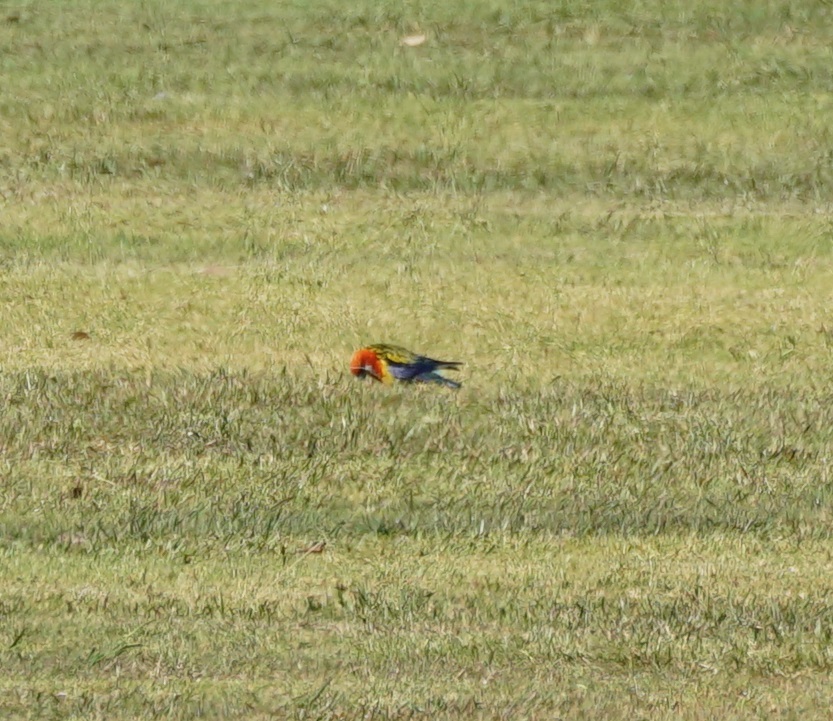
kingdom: Animalia
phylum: Chordata
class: Aves
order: Psittaciformes
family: Psittacidae
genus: Platycercus
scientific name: Platycercus eximius
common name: Eastern rosella
